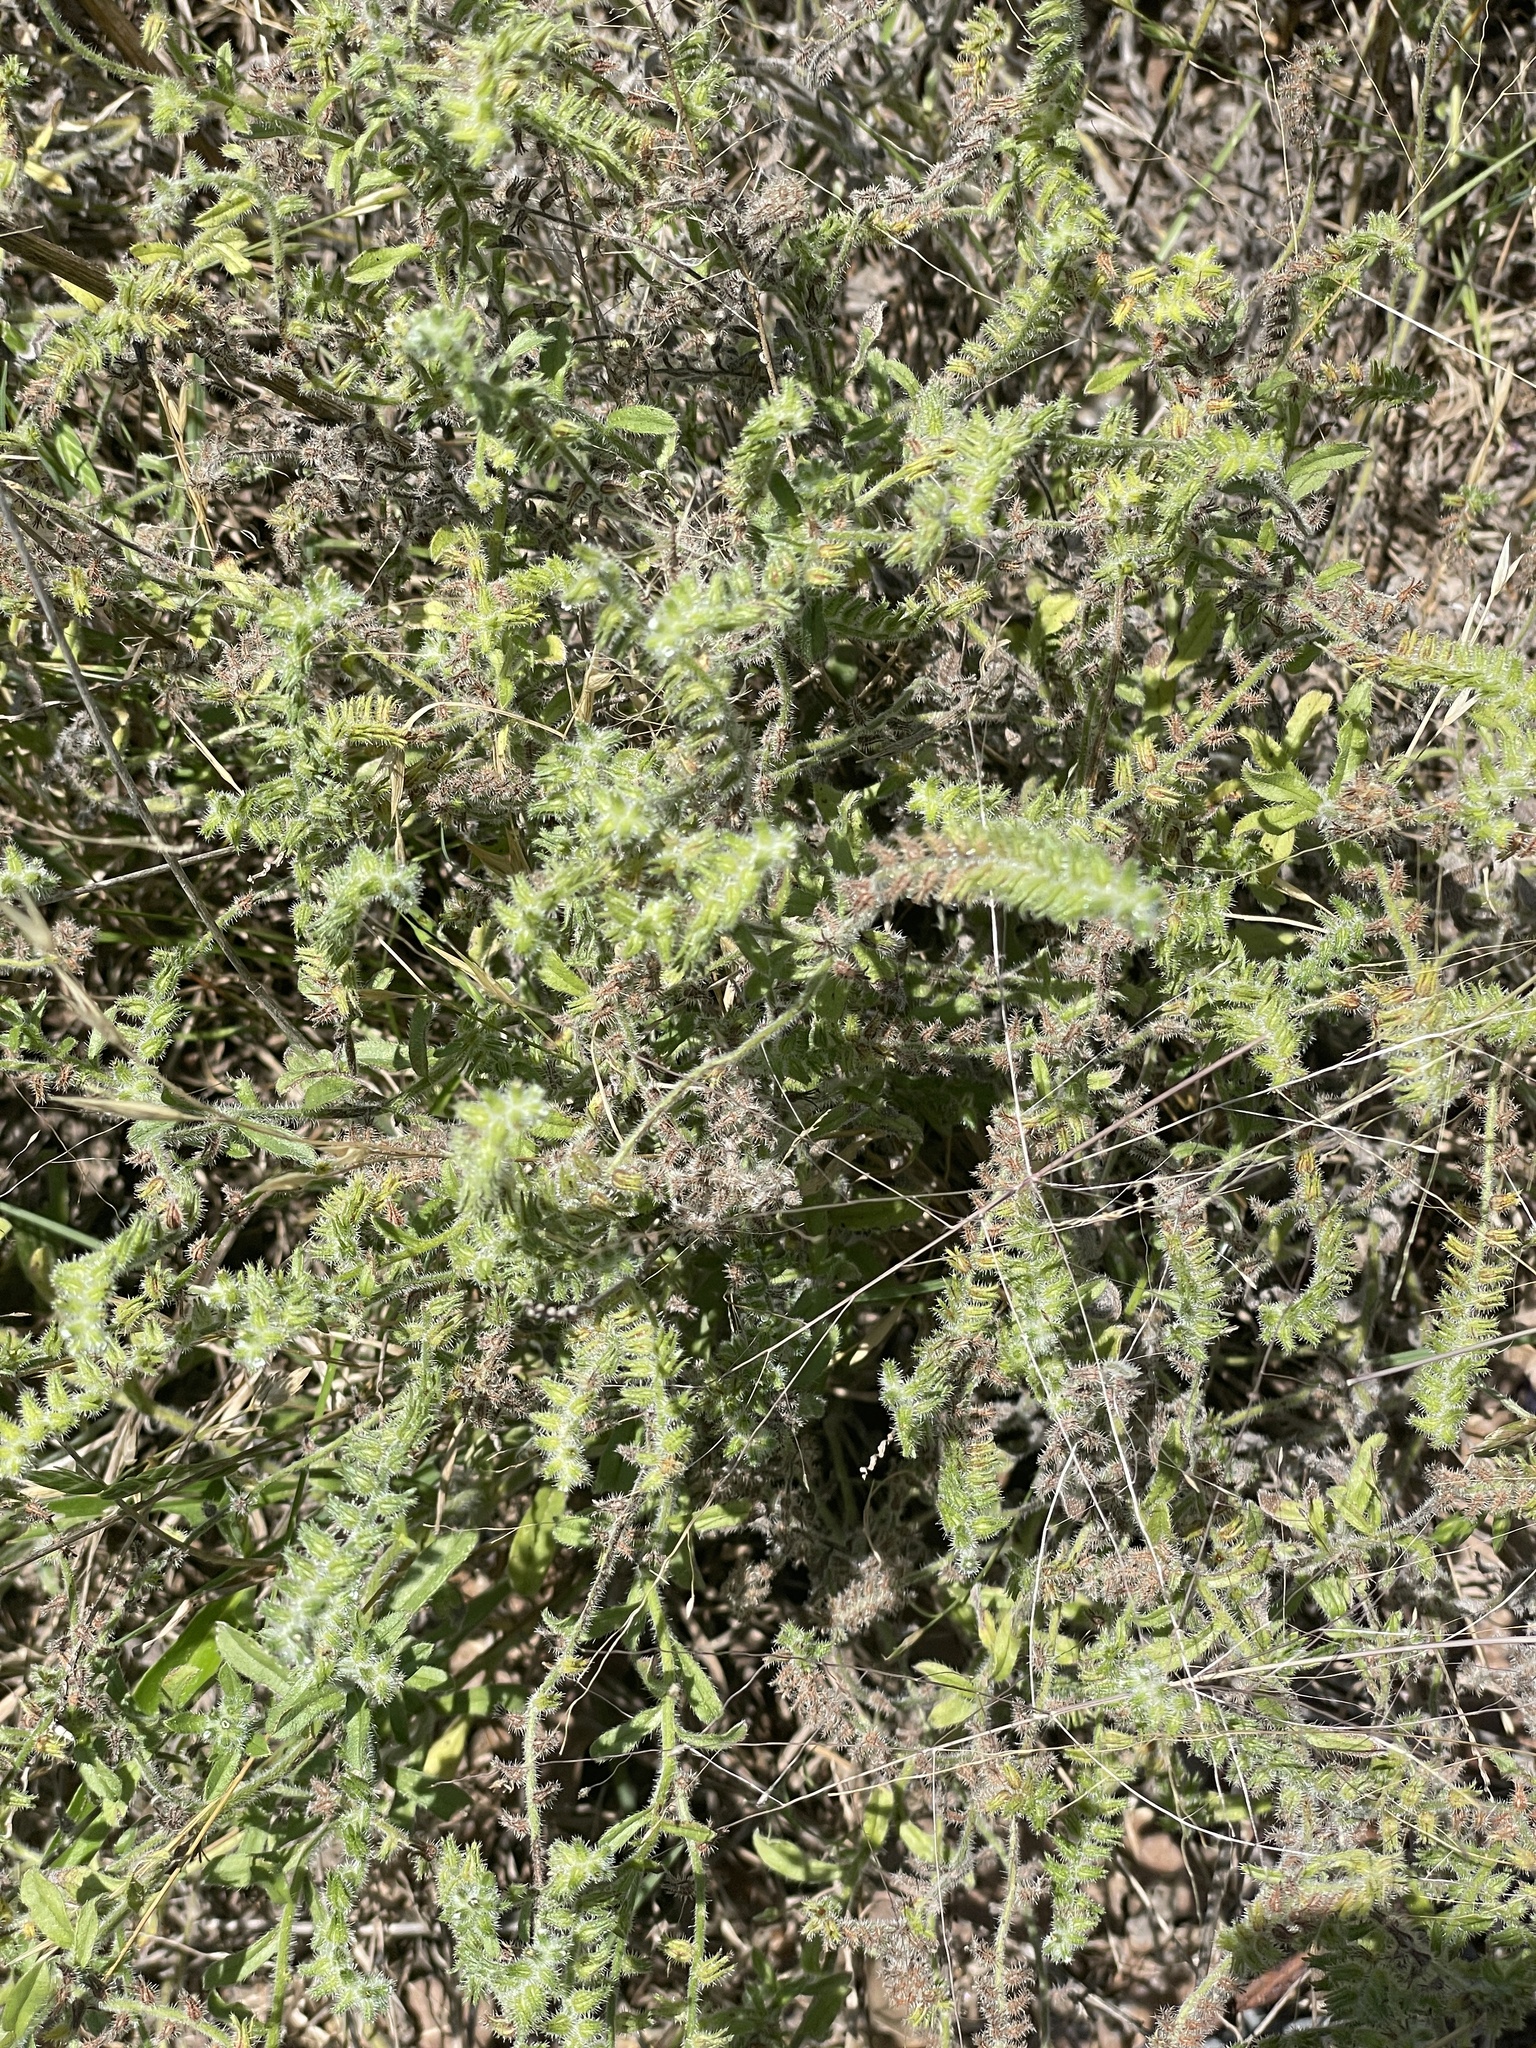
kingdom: Plantae
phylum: Tracheophyta
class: Magnoliopsida
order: Boraginales
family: Boraginaceae
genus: Cryptantha
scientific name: Cryptantha texana
